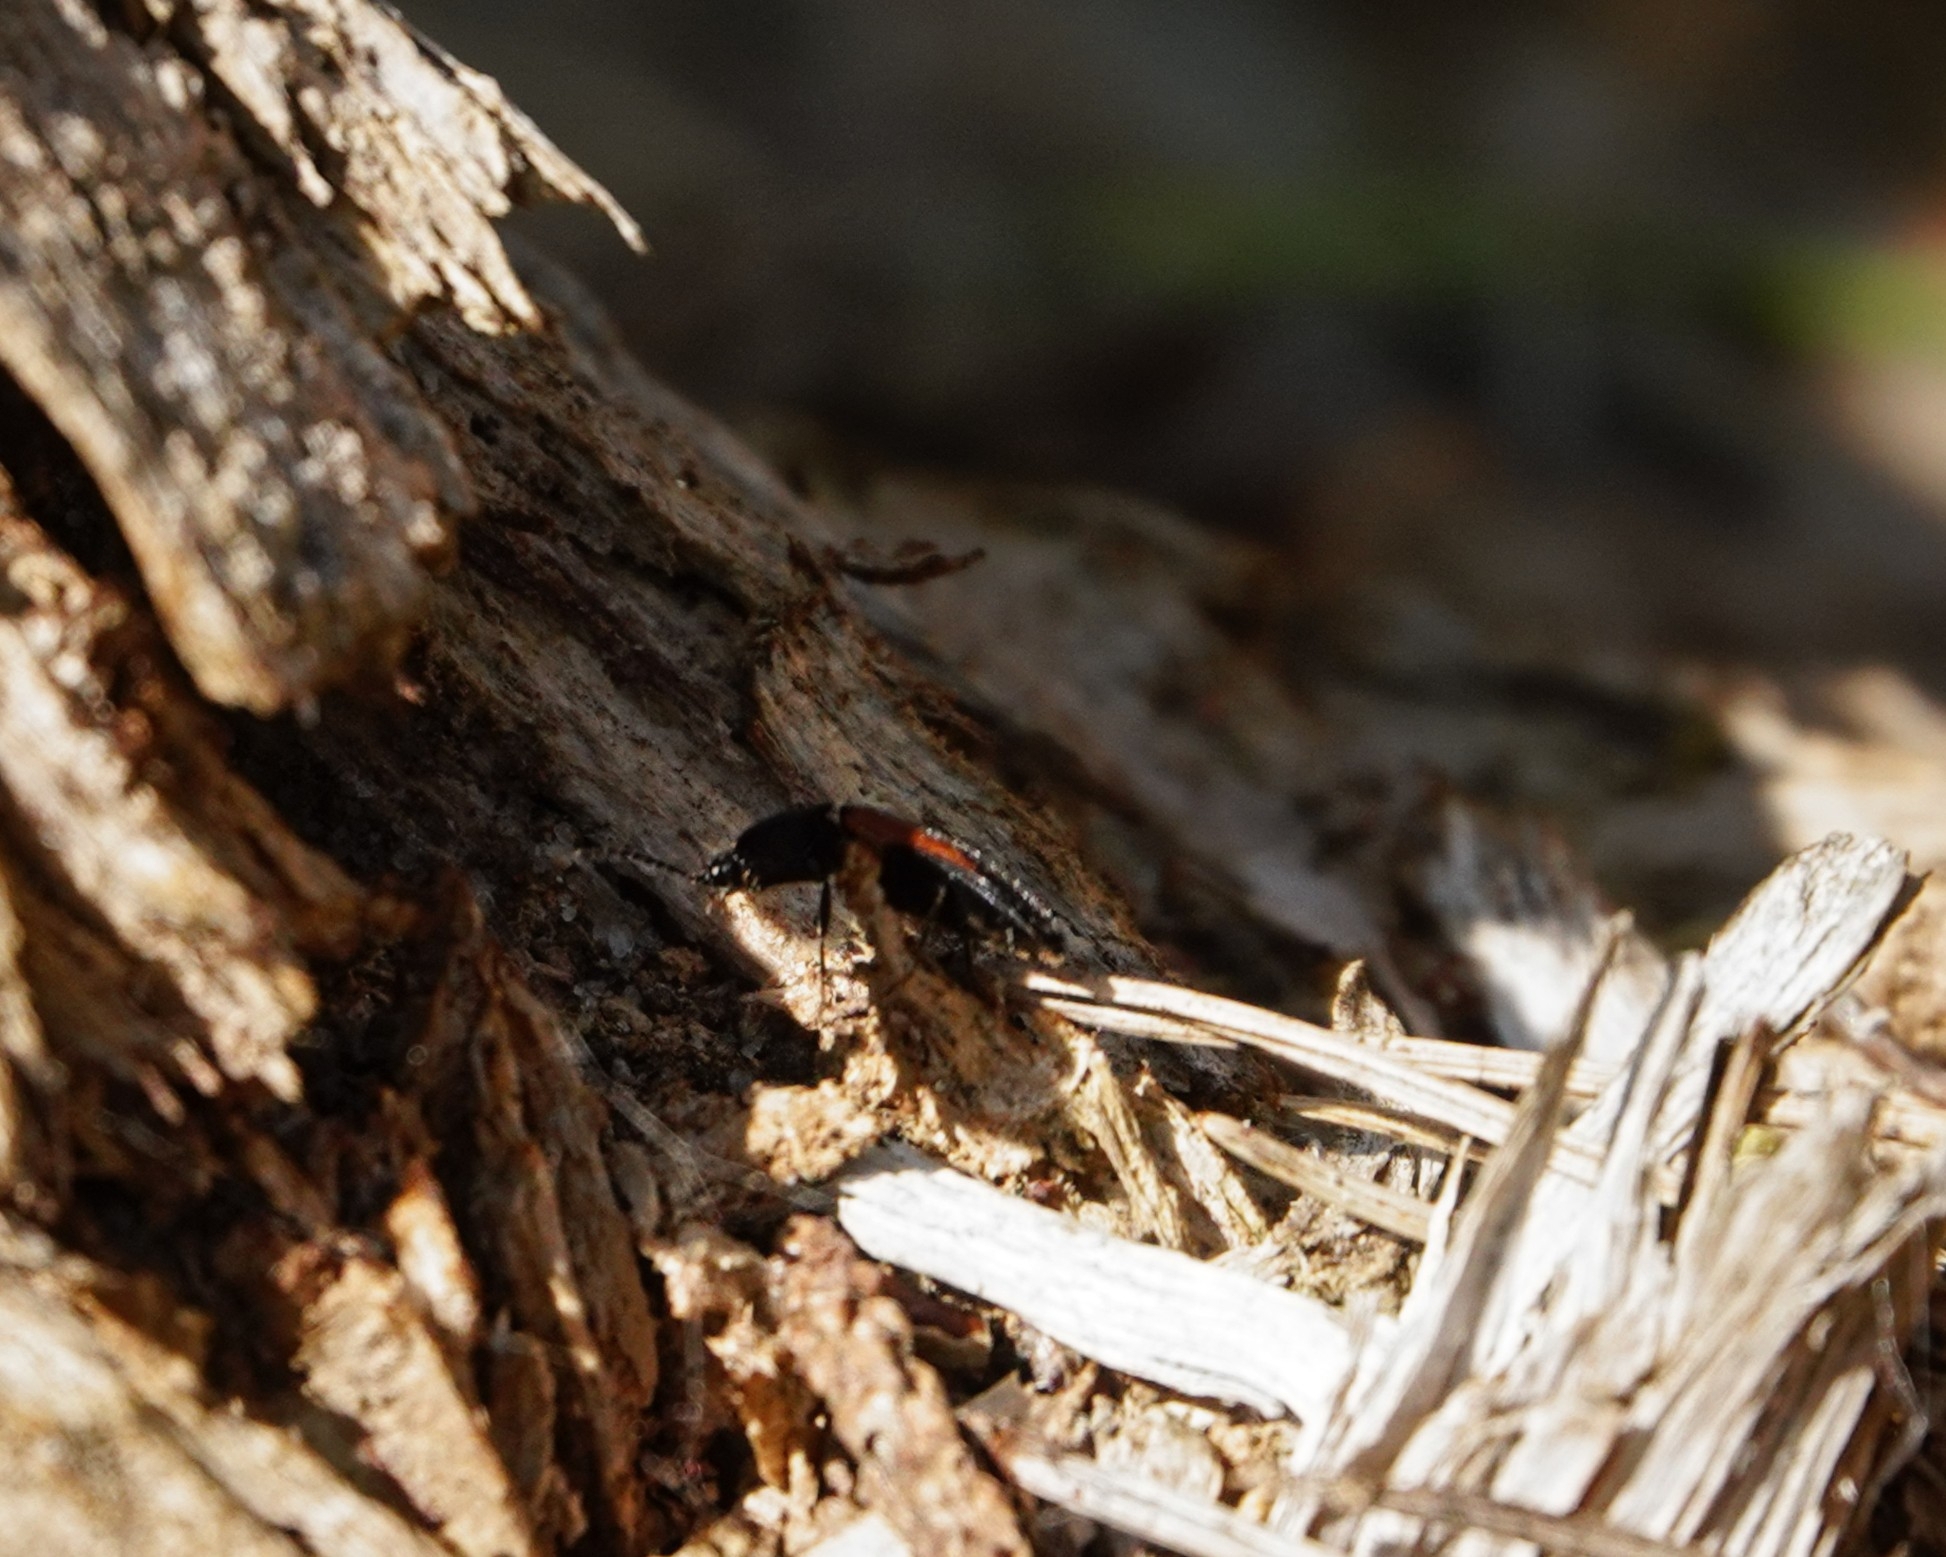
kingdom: Animalia
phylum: Arthropoda
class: Insecta
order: Coleoptera
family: Elateridae
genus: Ampedus
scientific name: Ampedus balteatus
